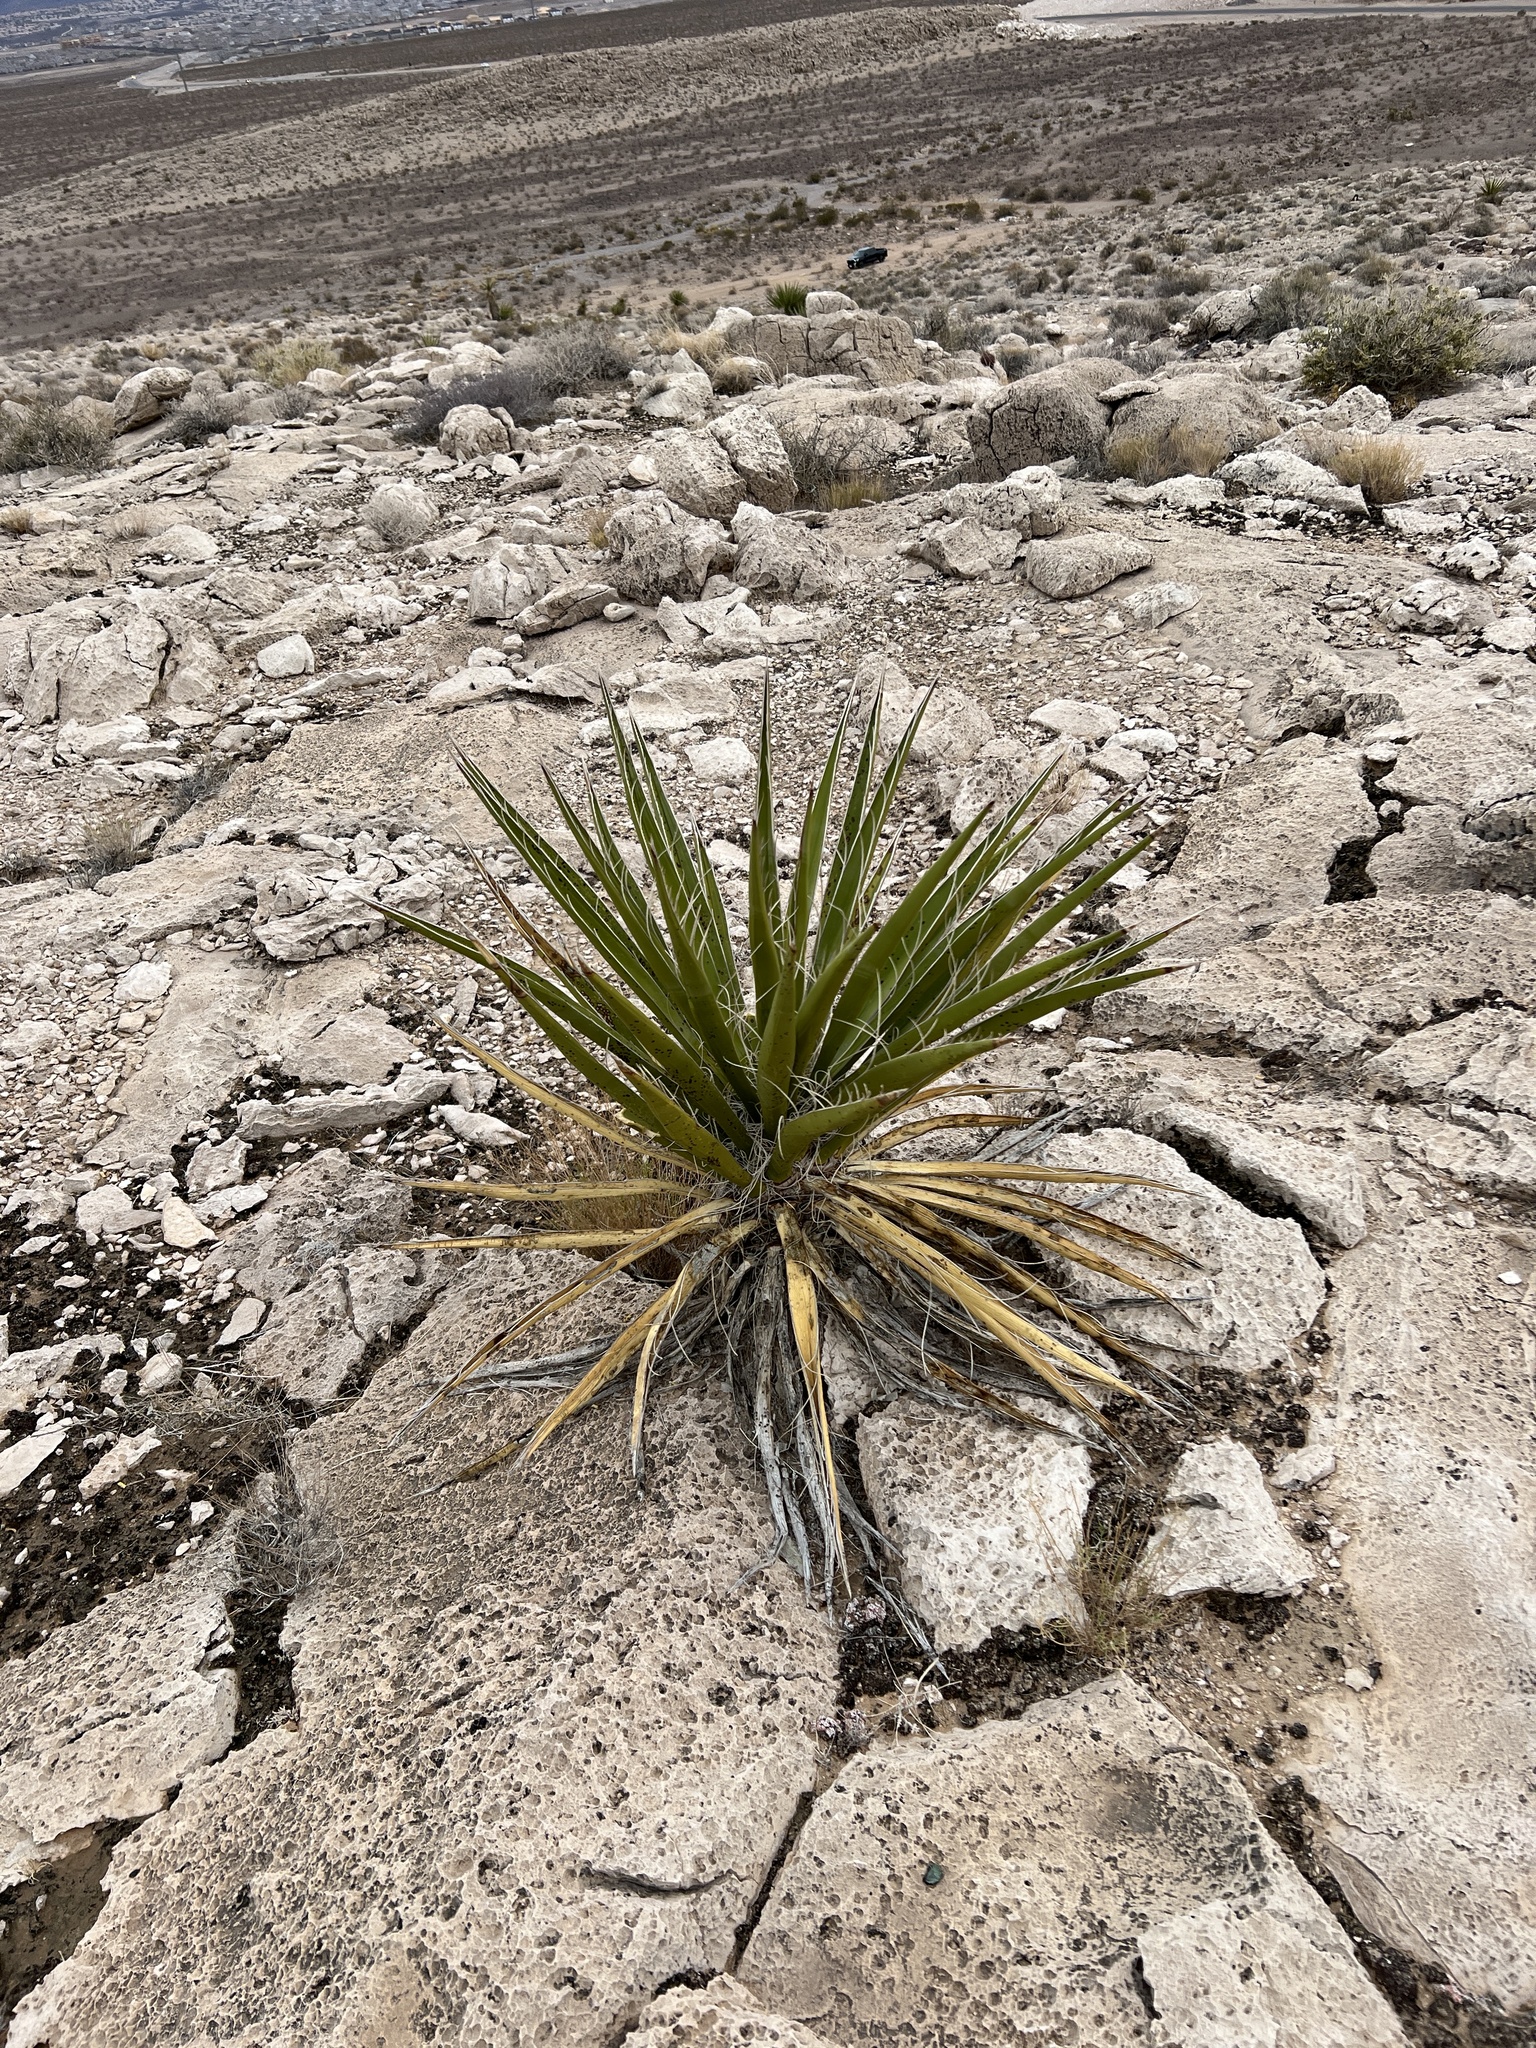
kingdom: Plantae
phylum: Tracheophyta
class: Liliopsida
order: Asparagales
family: Asparagaceae
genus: Yucca
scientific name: Yucca schidigera
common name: Mojave yucca
